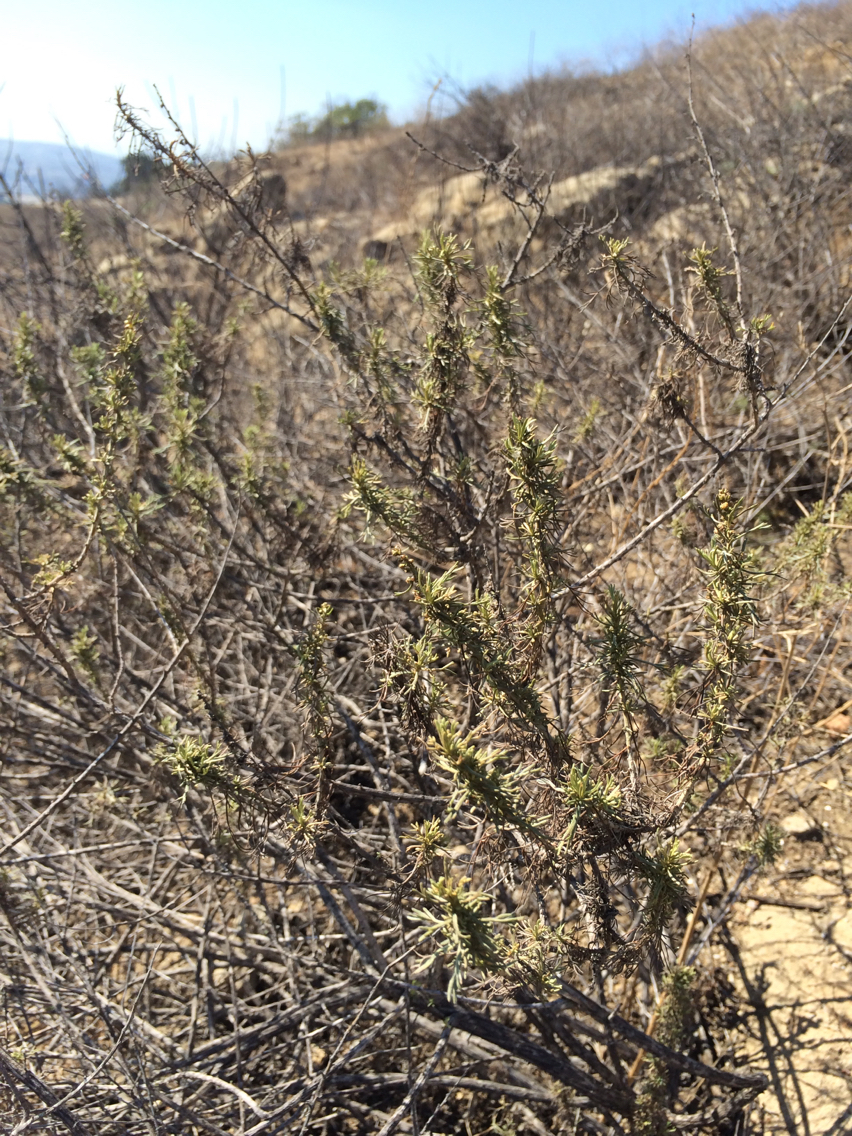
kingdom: Plantae
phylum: Tracheophyta
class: Magnoliopsida
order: Asterales
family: Asteraceae
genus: Artemisia
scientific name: Artemisia californica
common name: California sagebrush
